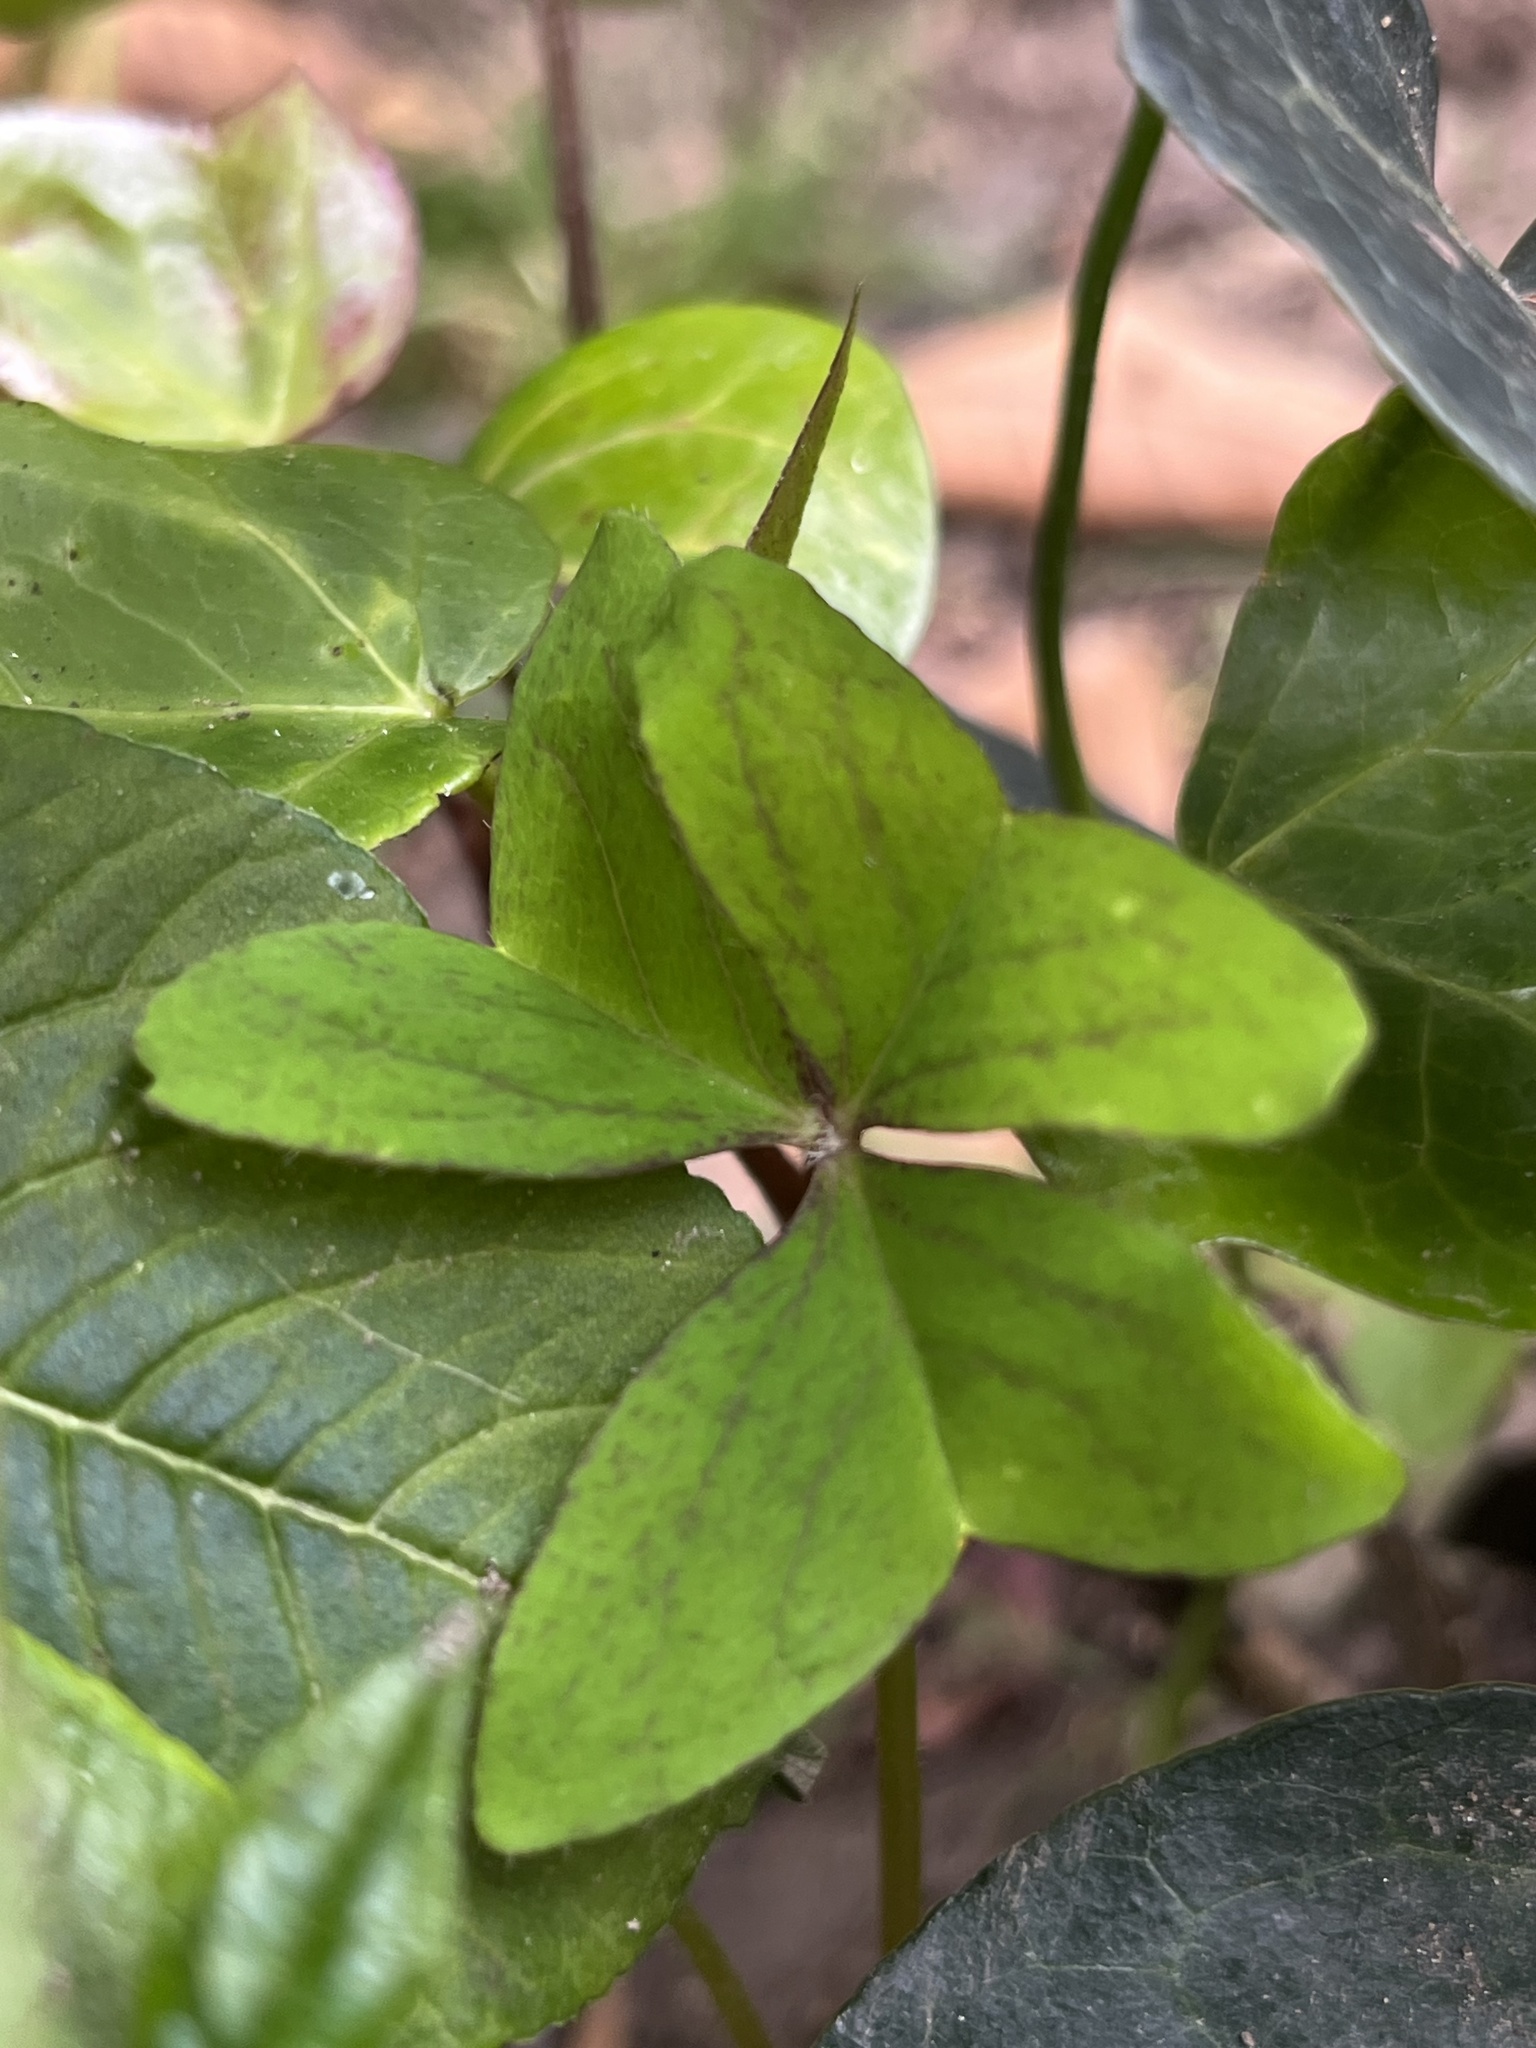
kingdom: Plantae
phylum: Tracheophyta
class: Magnoliopsida
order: Oxalidales
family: Oxalidaceae
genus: Oxalis
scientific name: Oxalis latifolia
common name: Garden pink-sorrel
